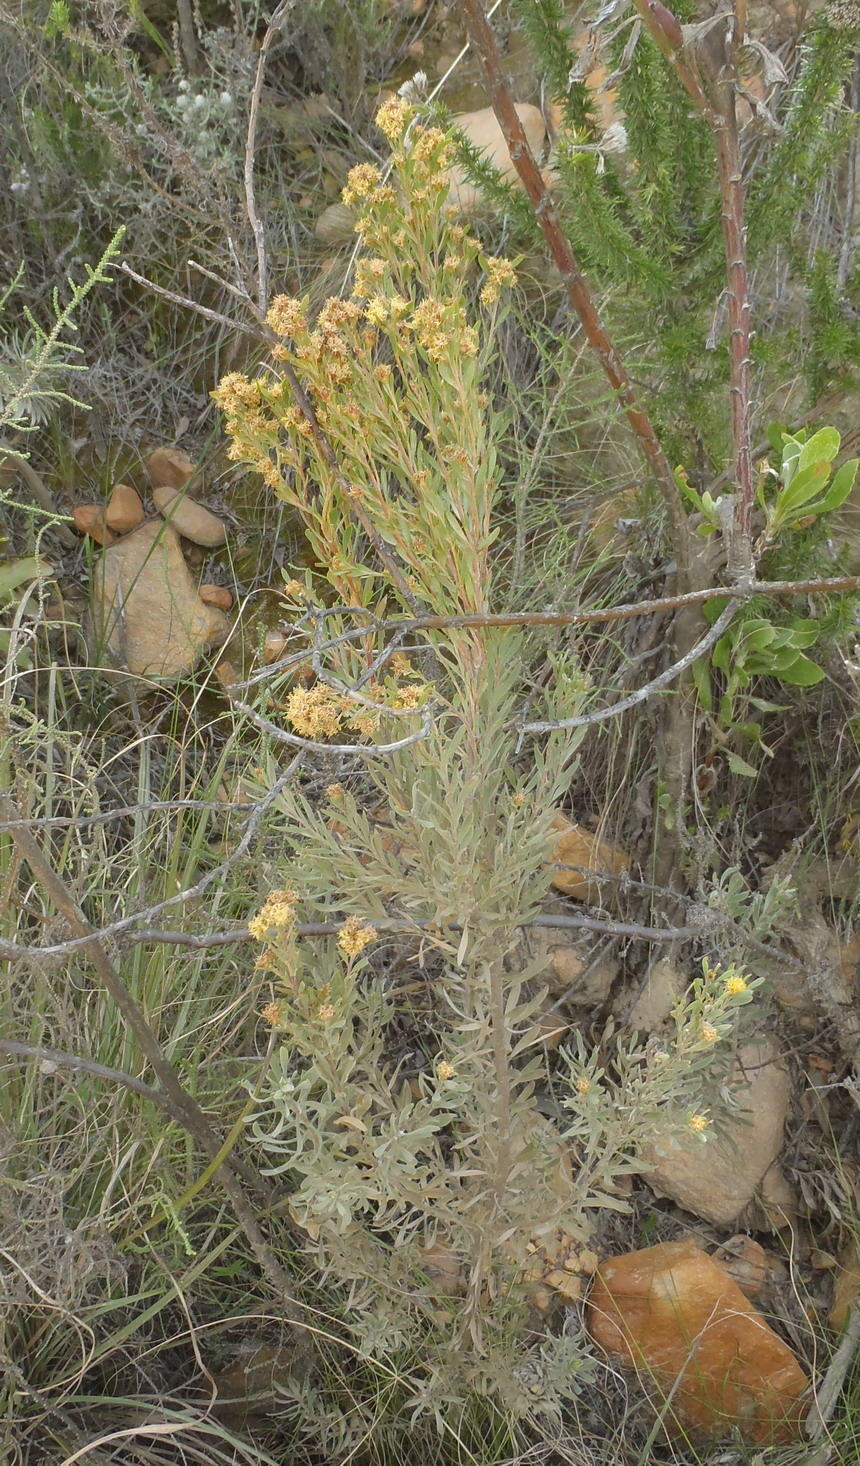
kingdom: Plantae
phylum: Tracheophyta
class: Magnoliopsida
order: Proteales
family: Proteaceae
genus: Leucadendron
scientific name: Leucadendron rubrum
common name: Spinning top
